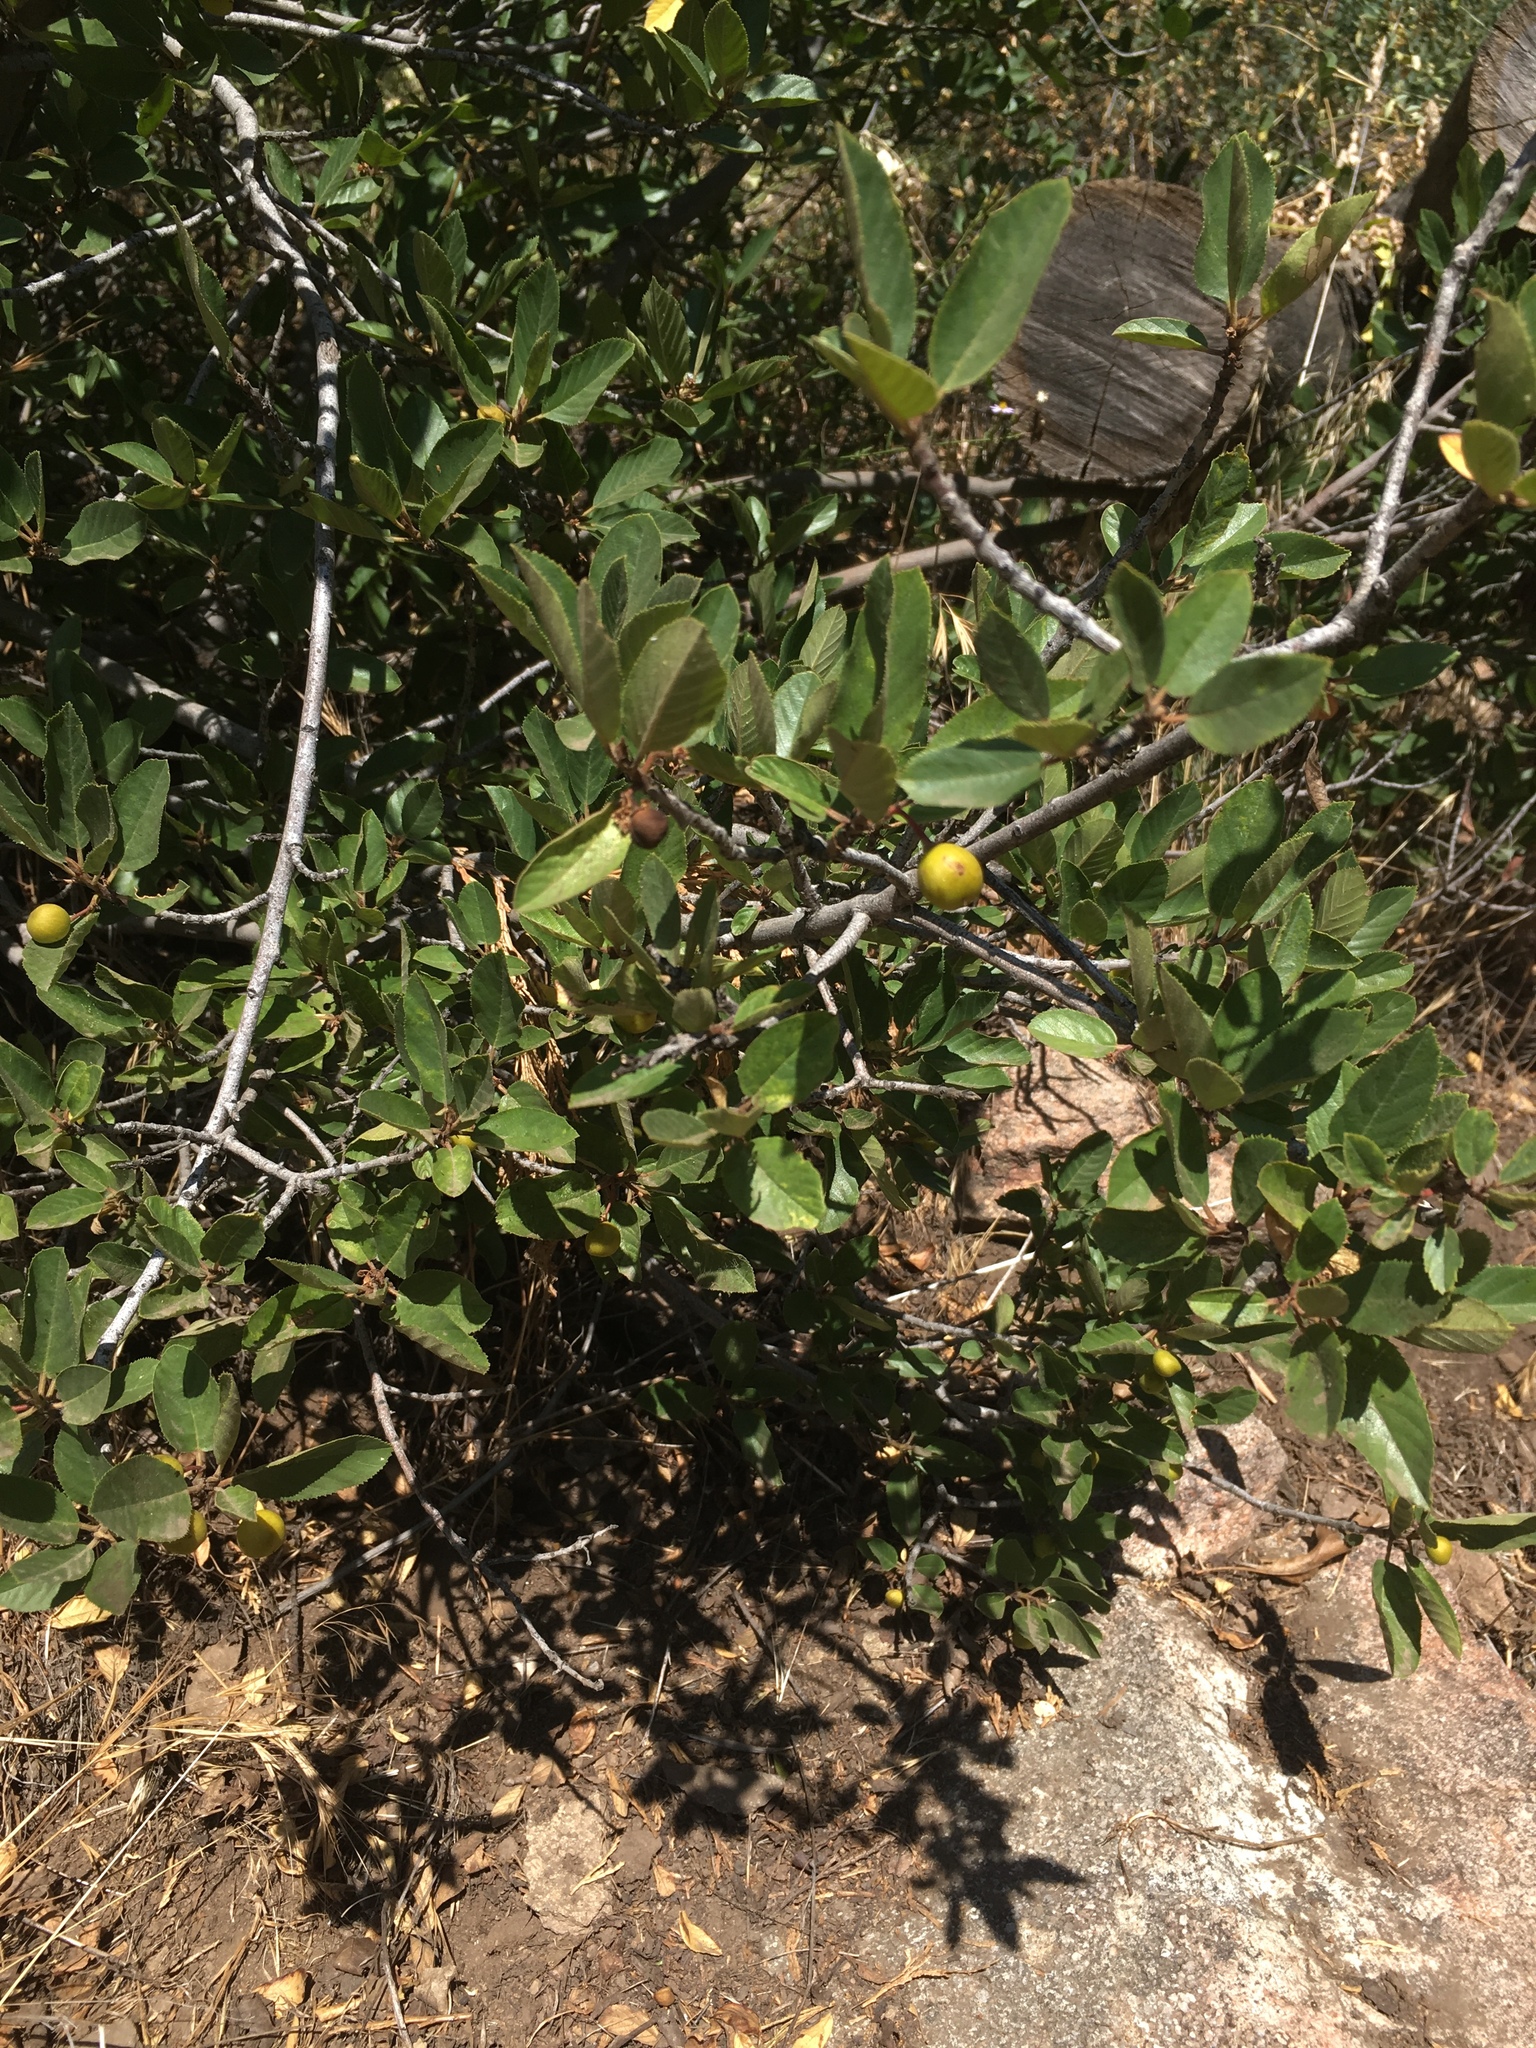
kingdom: Plantae
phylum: Tracheophyta
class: Magnoliopsida
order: Rosales
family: Rhamnaceae
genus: Frangula
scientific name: Frangula californica
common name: California buckthorn
